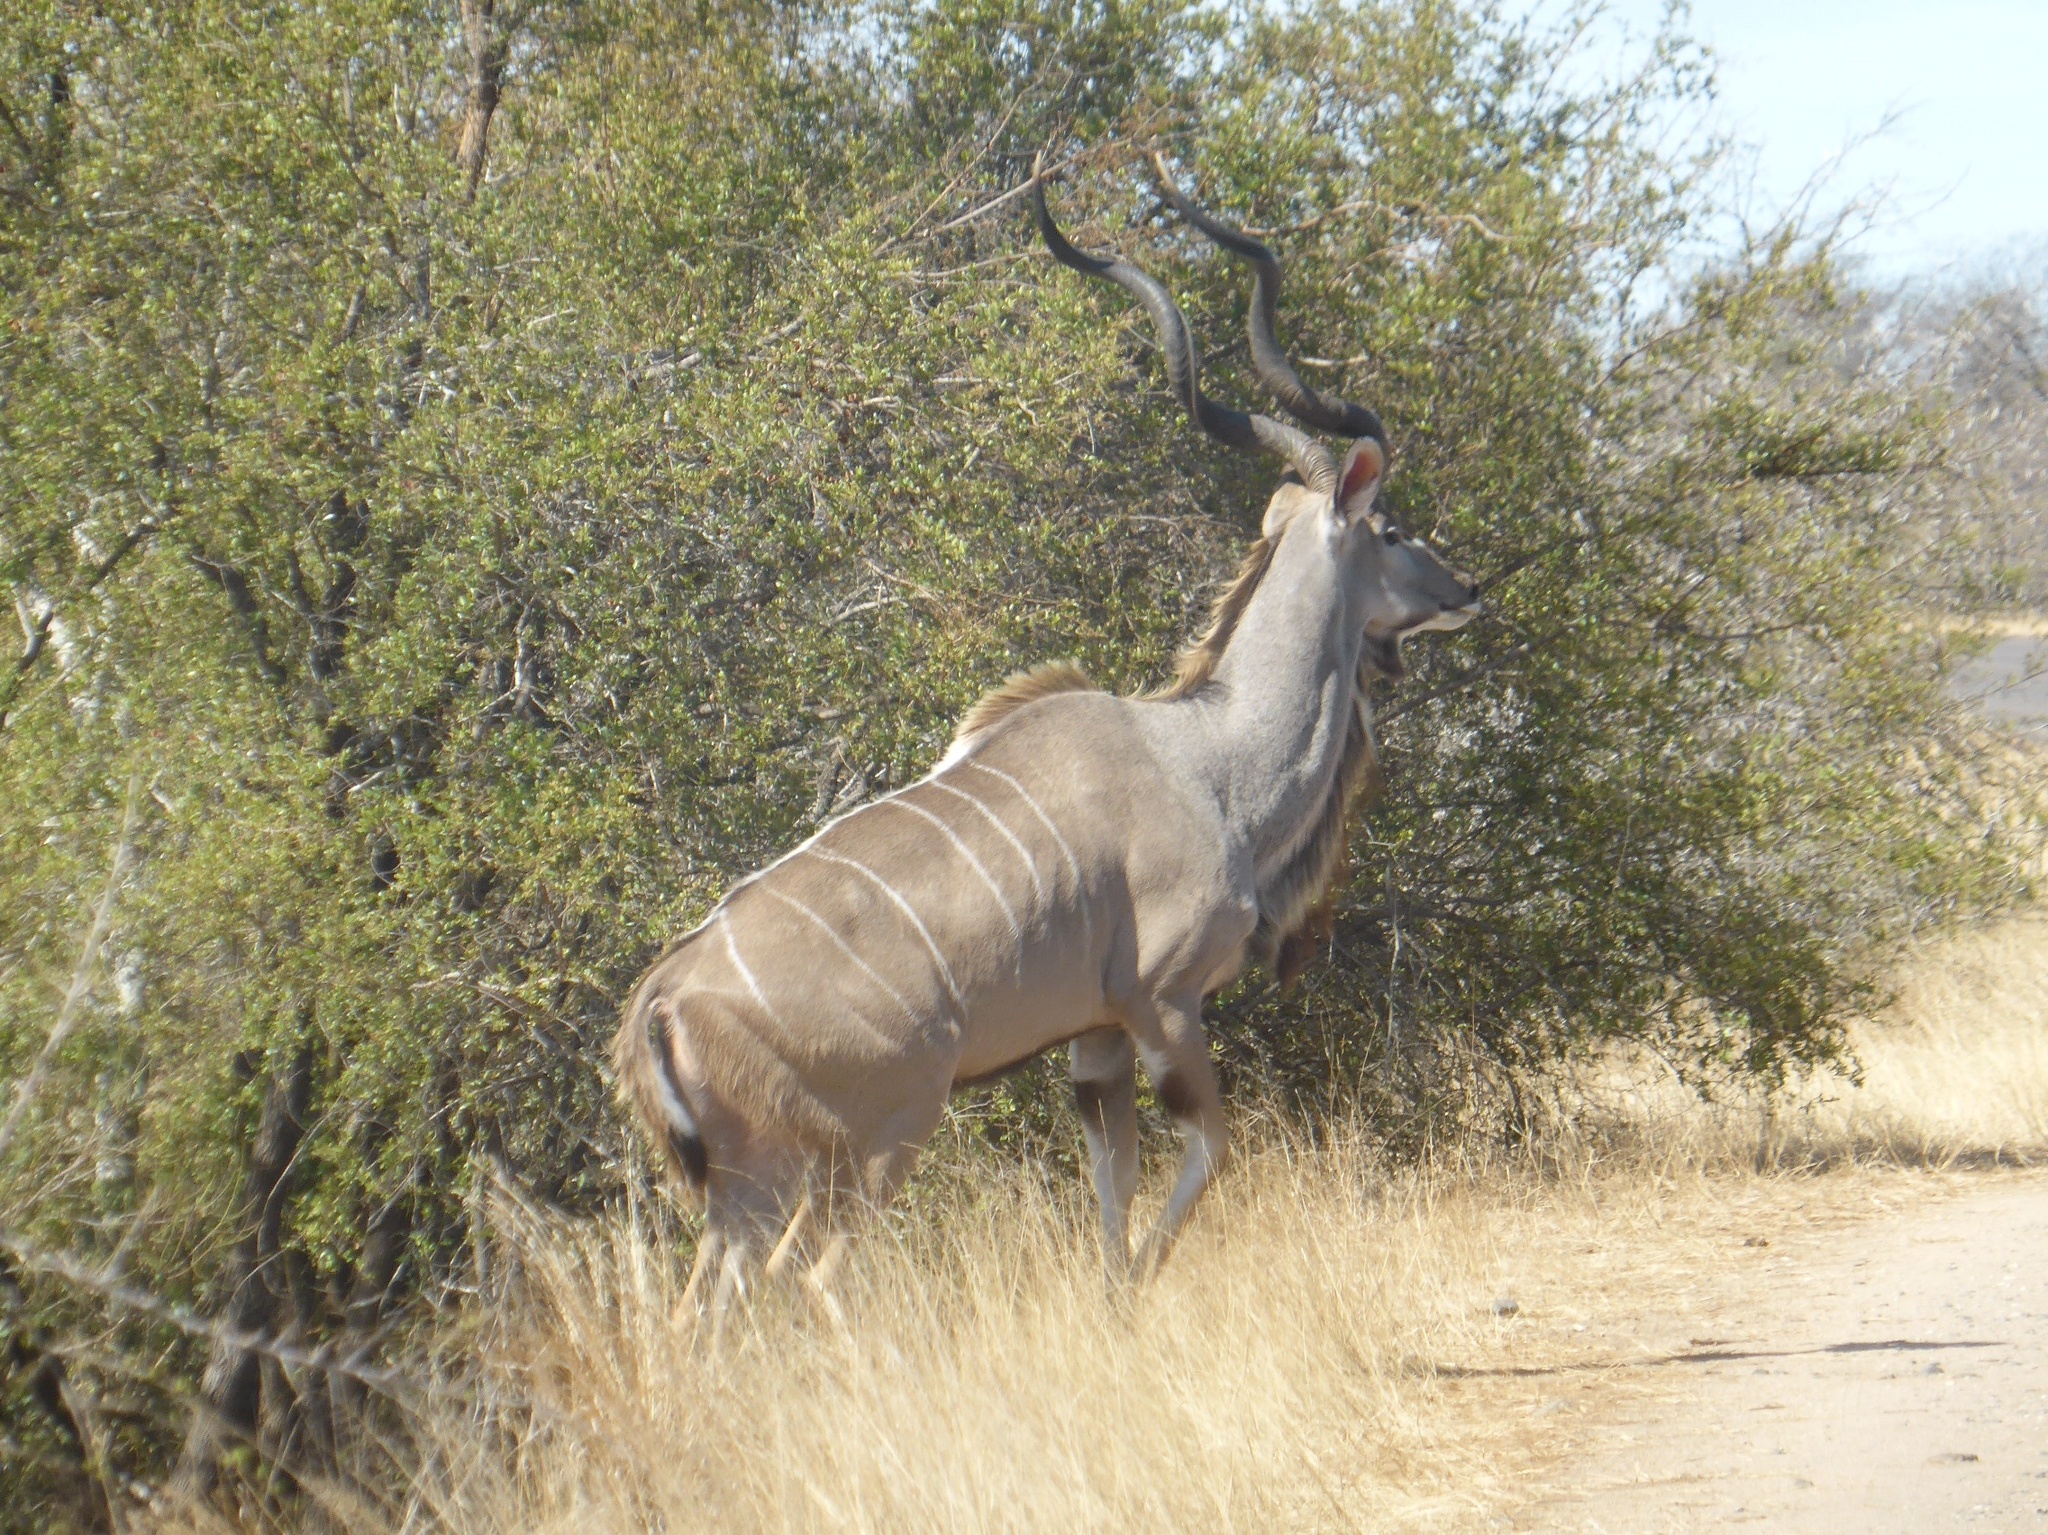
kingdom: Animalia
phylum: Chordata
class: Mammalia
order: Artiodactyla
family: Bovidae
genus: Tragelaphus
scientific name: Tragelaphus strepsiceros
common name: Greater kudu
